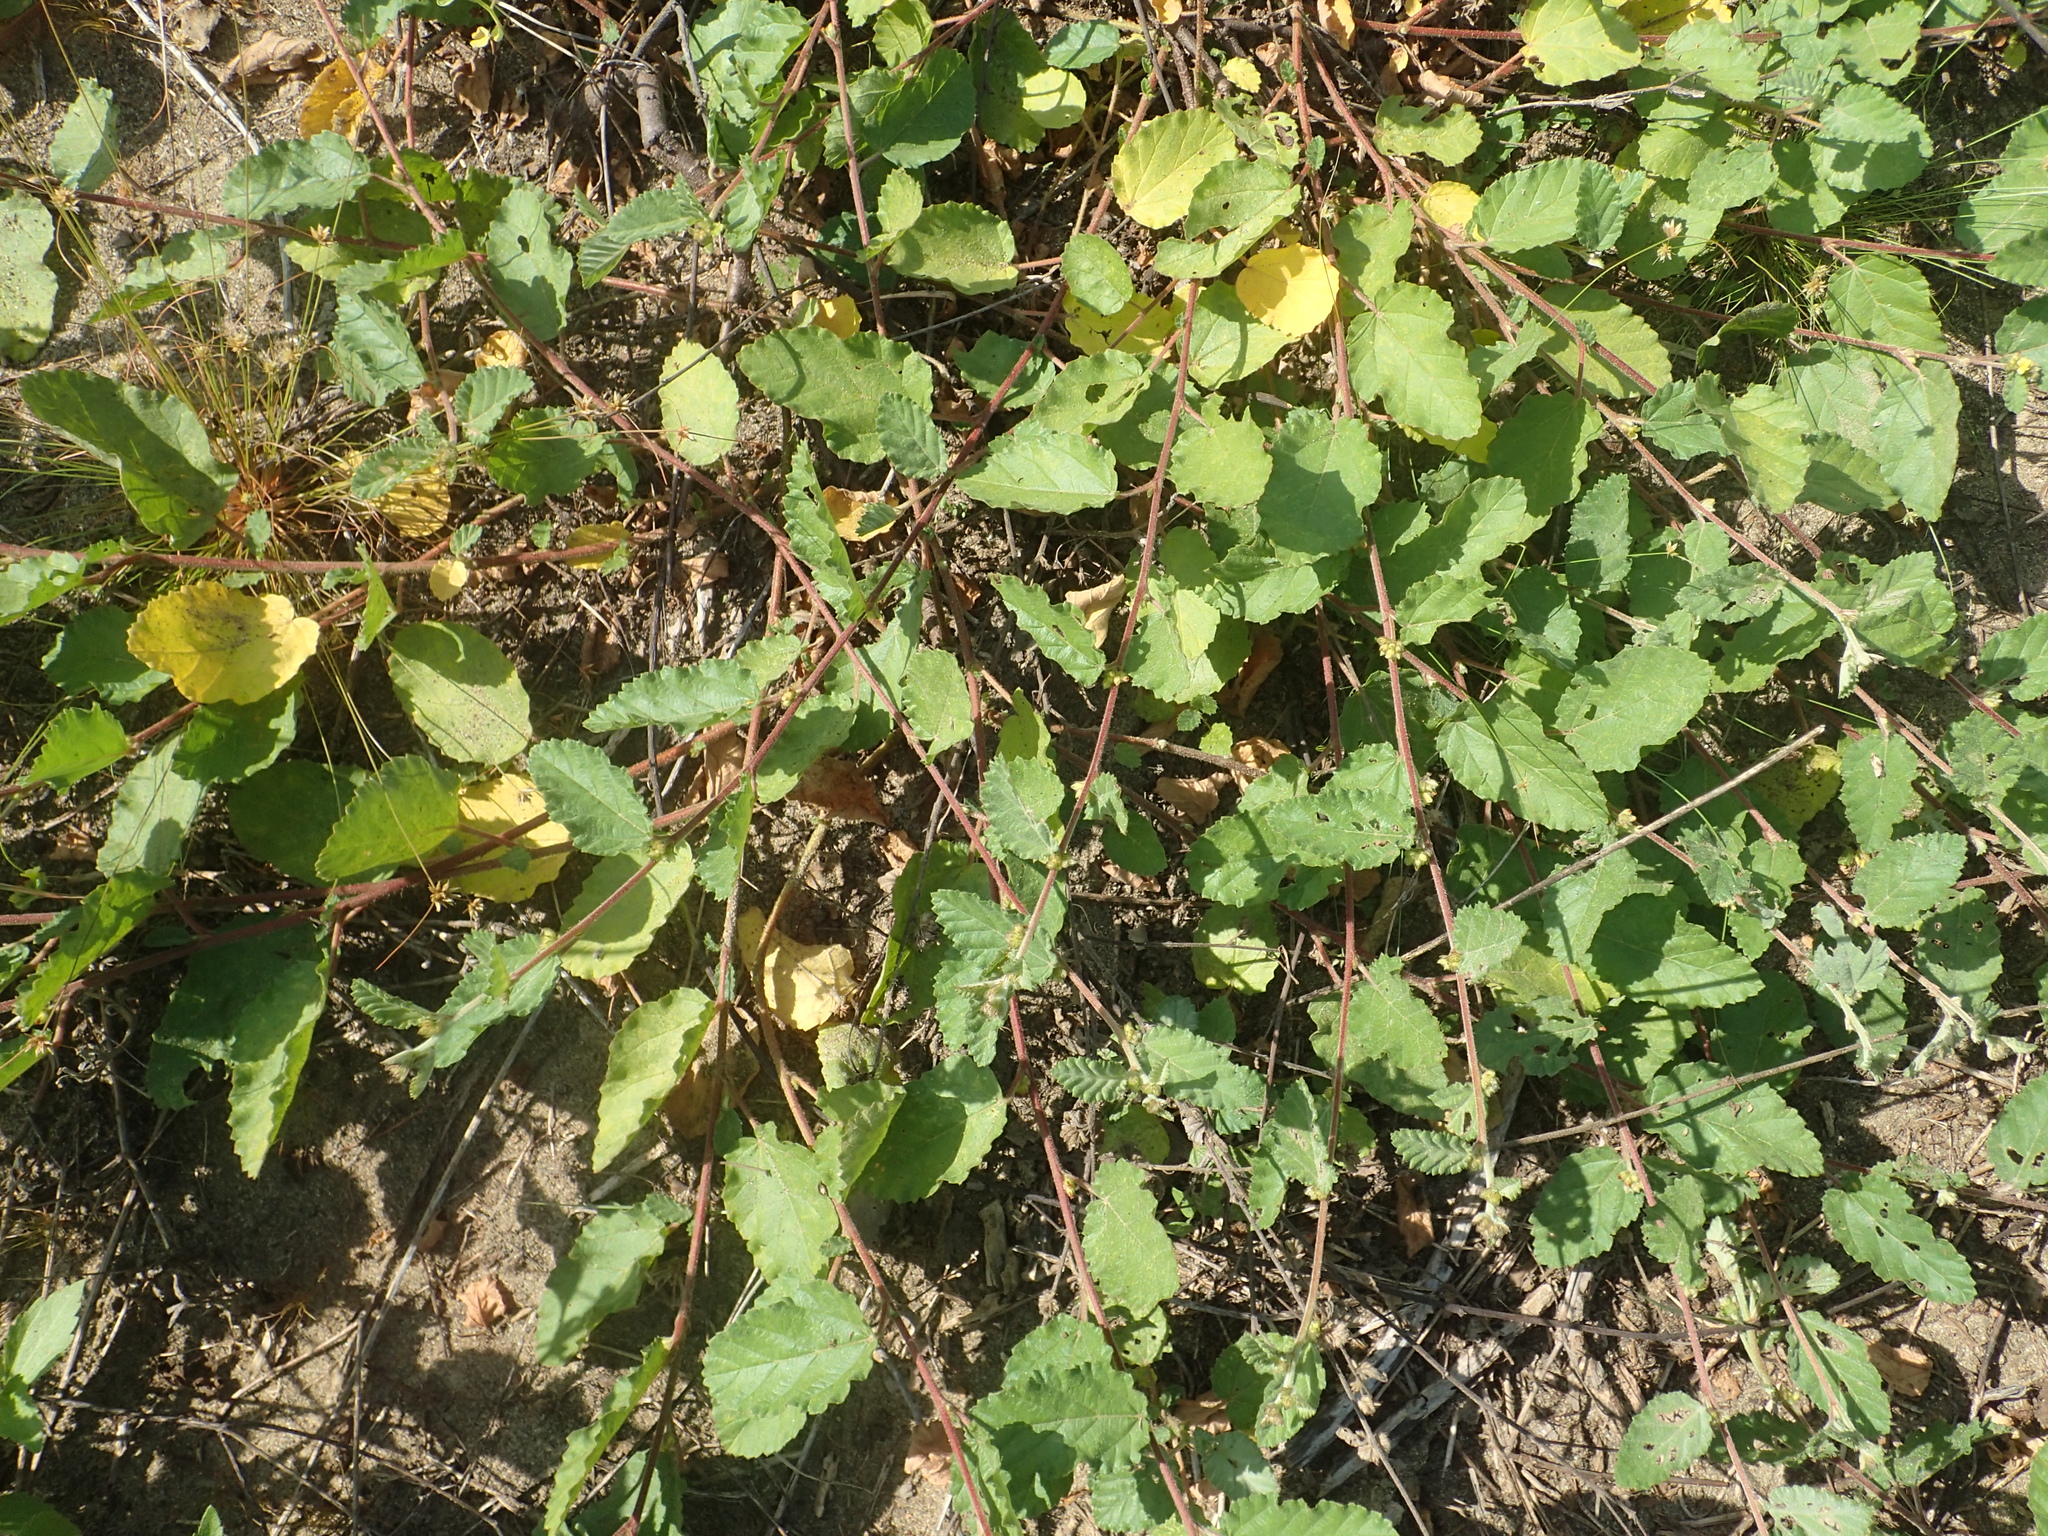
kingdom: Plantae
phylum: Tracheophyta
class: Magnoliopsida
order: Malvales
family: Malvaceae
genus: Waltheria
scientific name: Waltheria indica
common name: Leather-coat
